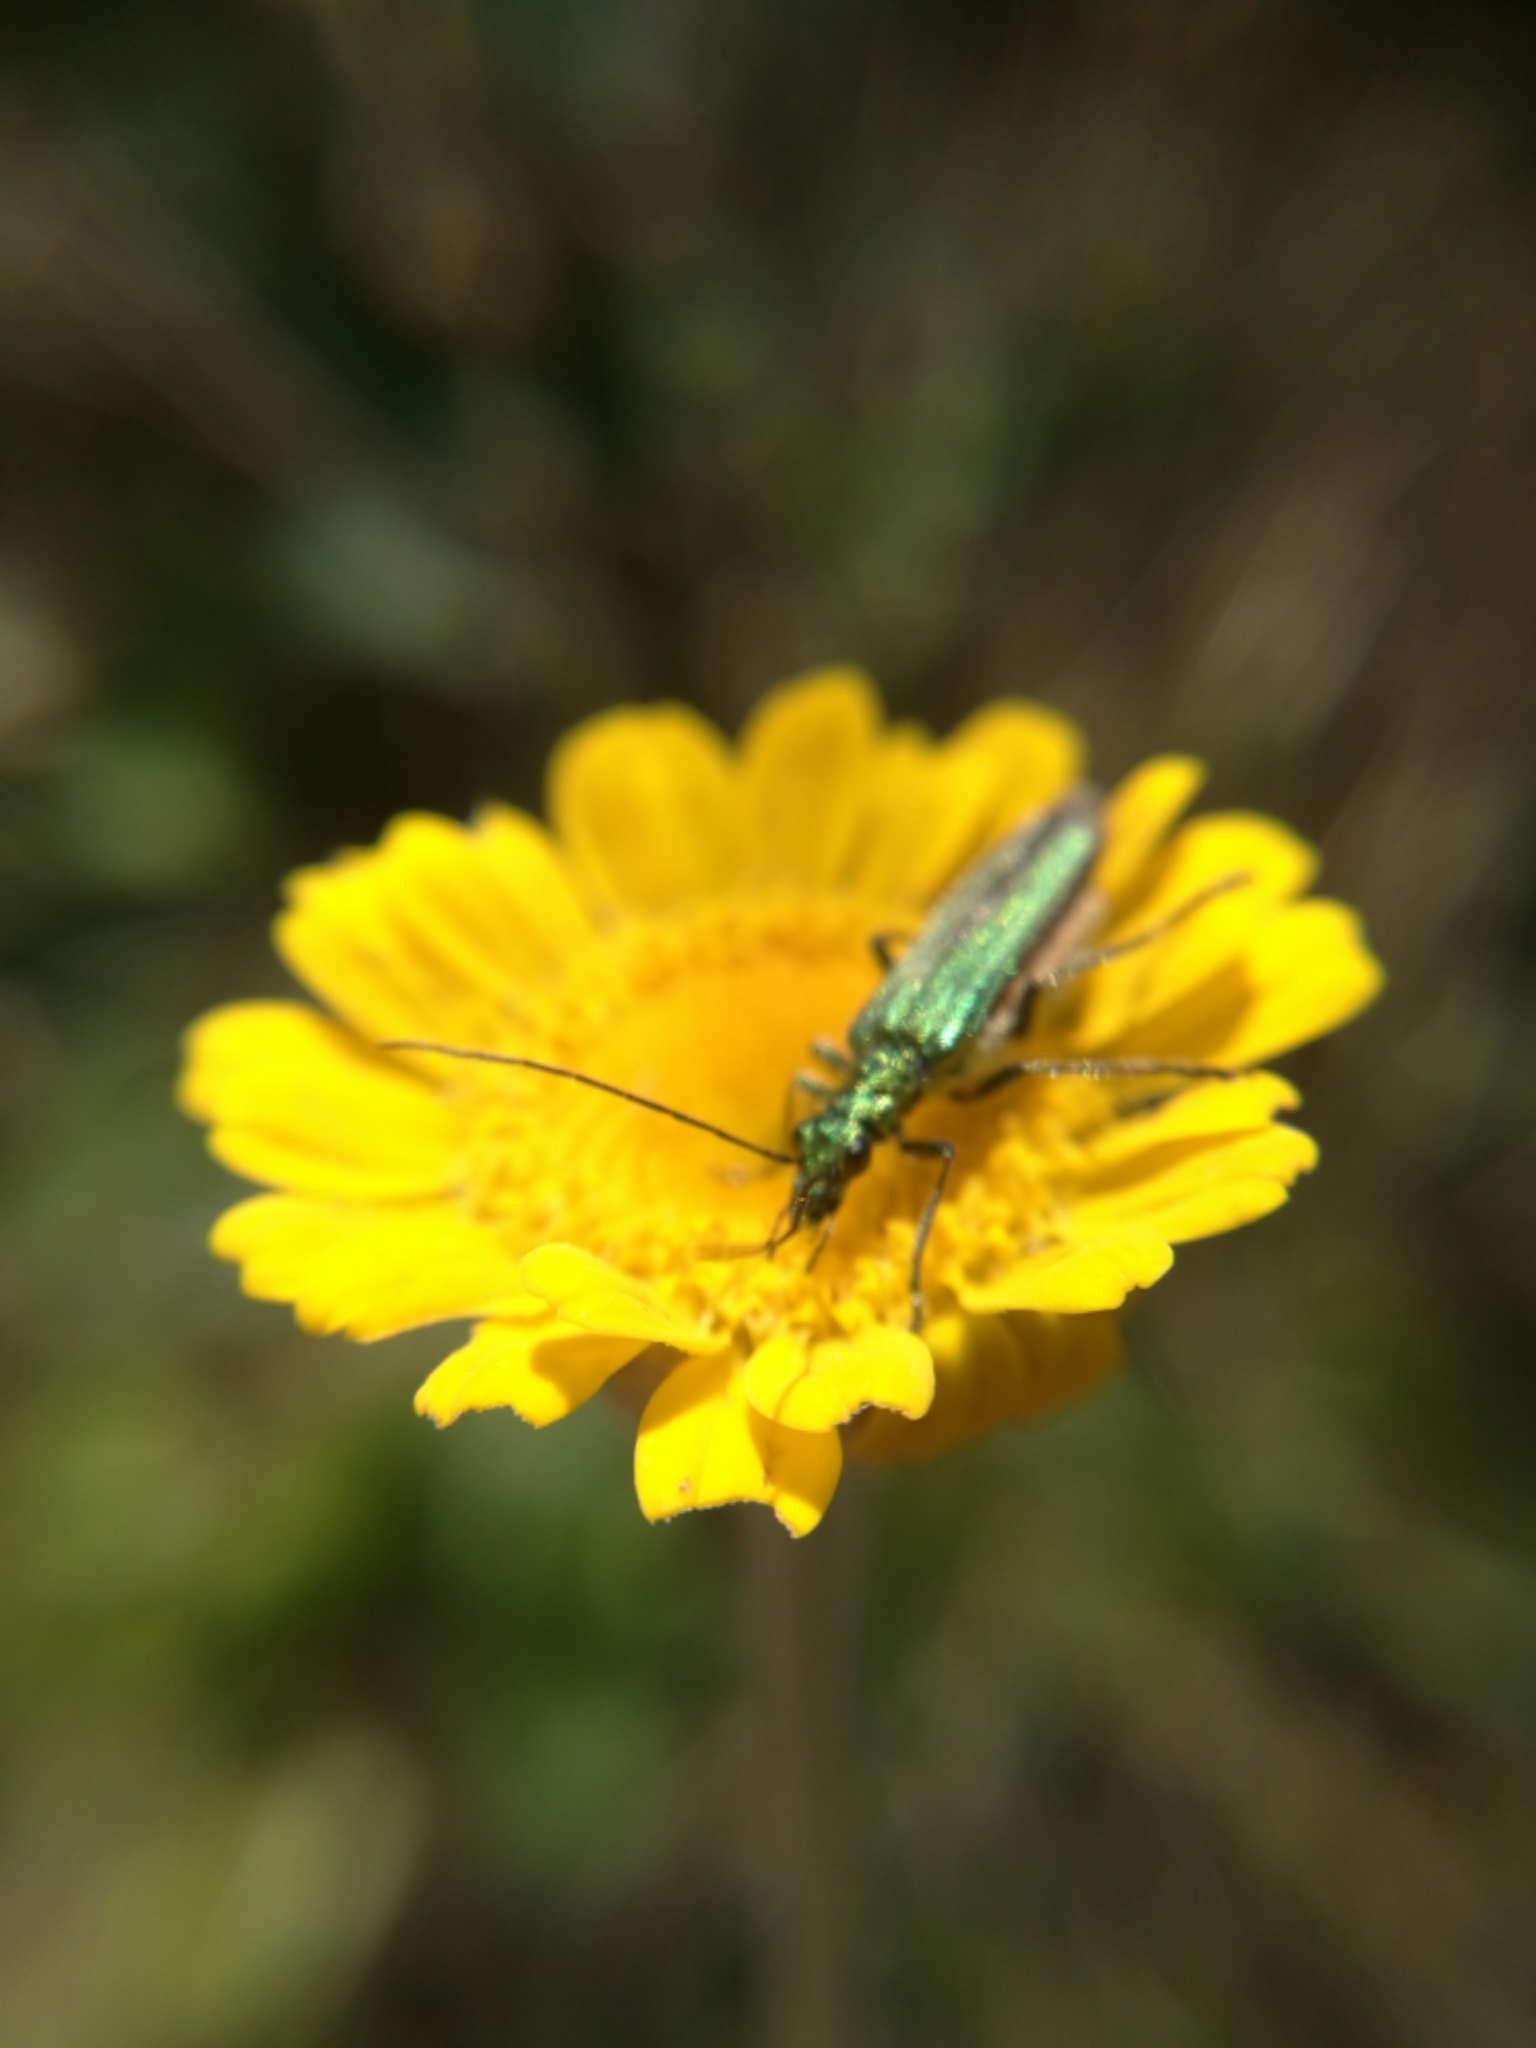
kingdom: Animalia
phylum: Arthropoda
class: Insecta
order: Coleoptera
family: Oedemeridae
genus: Oedemera
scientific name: Oedemera nobilis
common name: Swollen-thighed beetle
